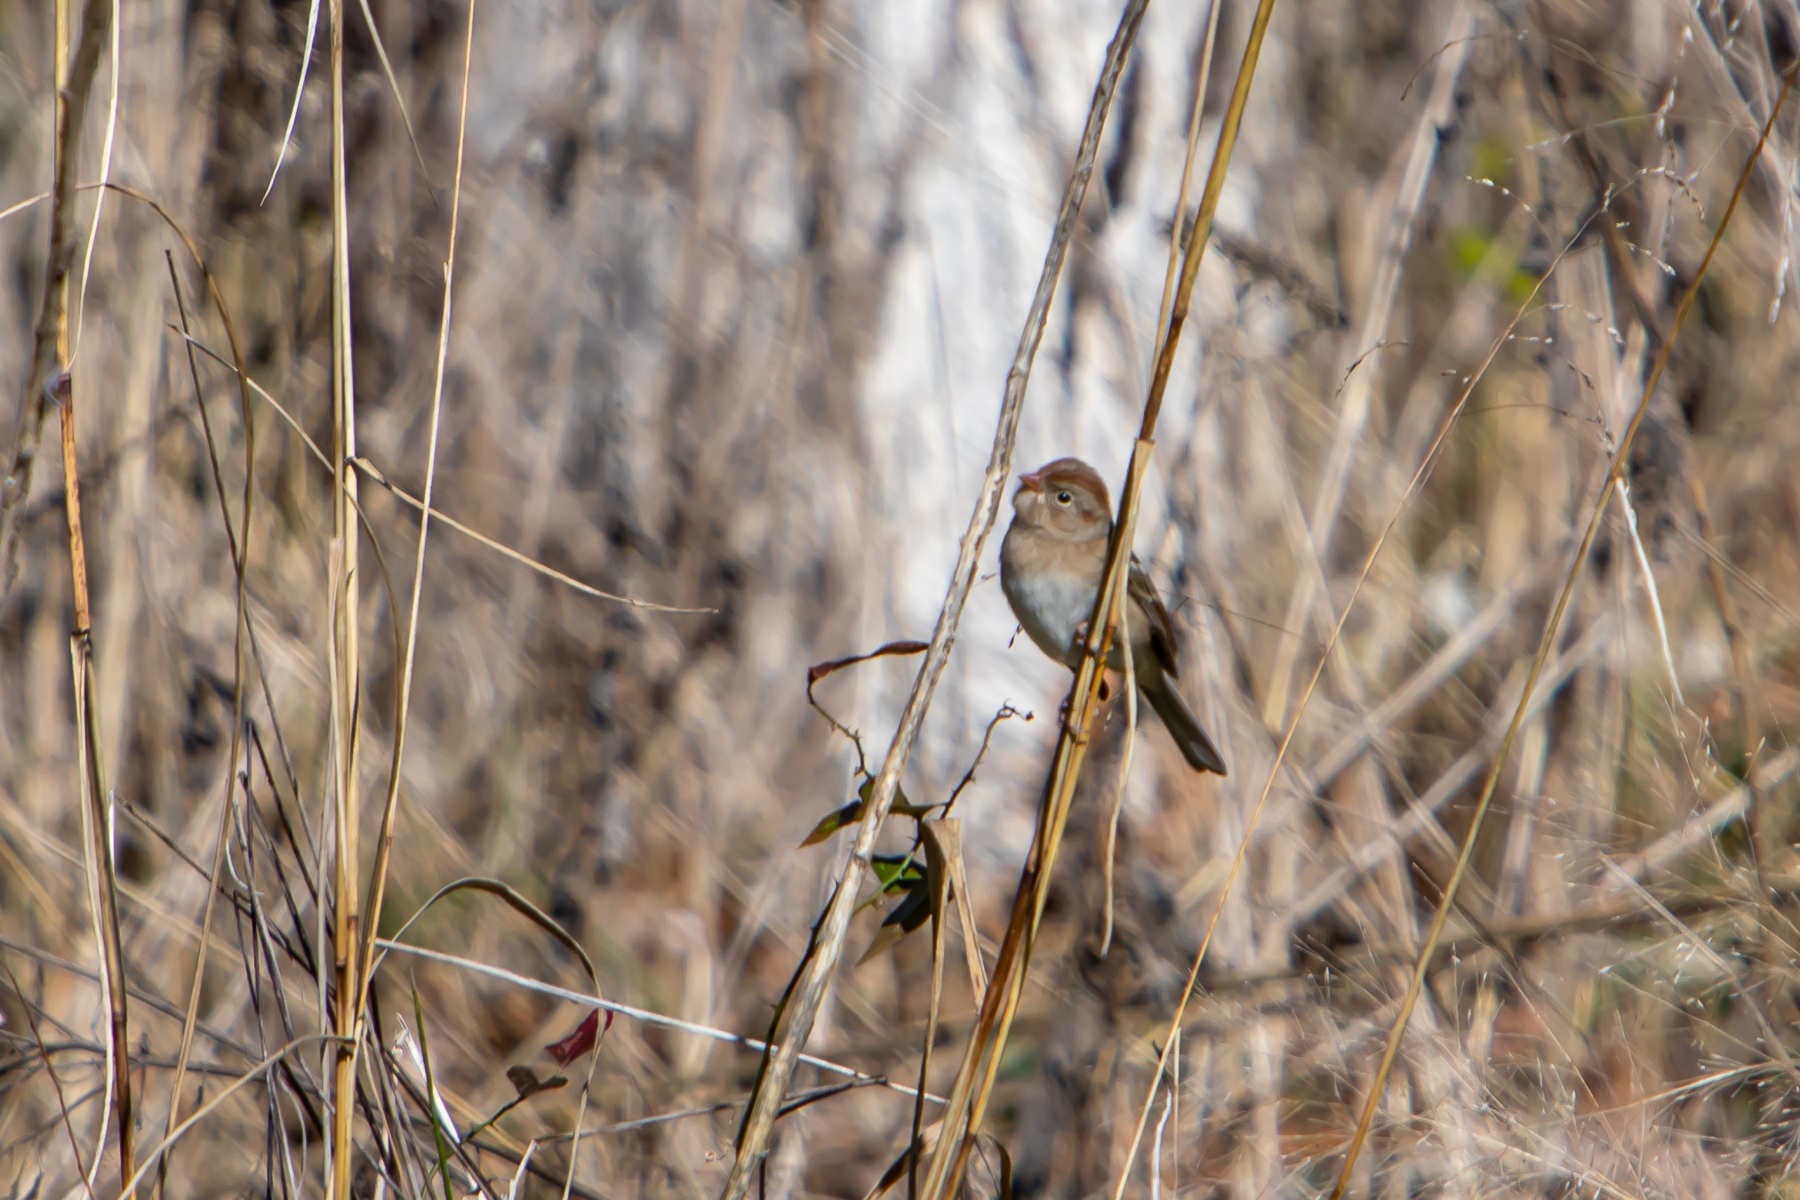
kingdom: Animalia
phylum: Chordata
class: Aves
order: Passeriformes
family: Passerellidae
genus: Spizella
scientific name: Spizella pusilla
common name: Field sparrow
